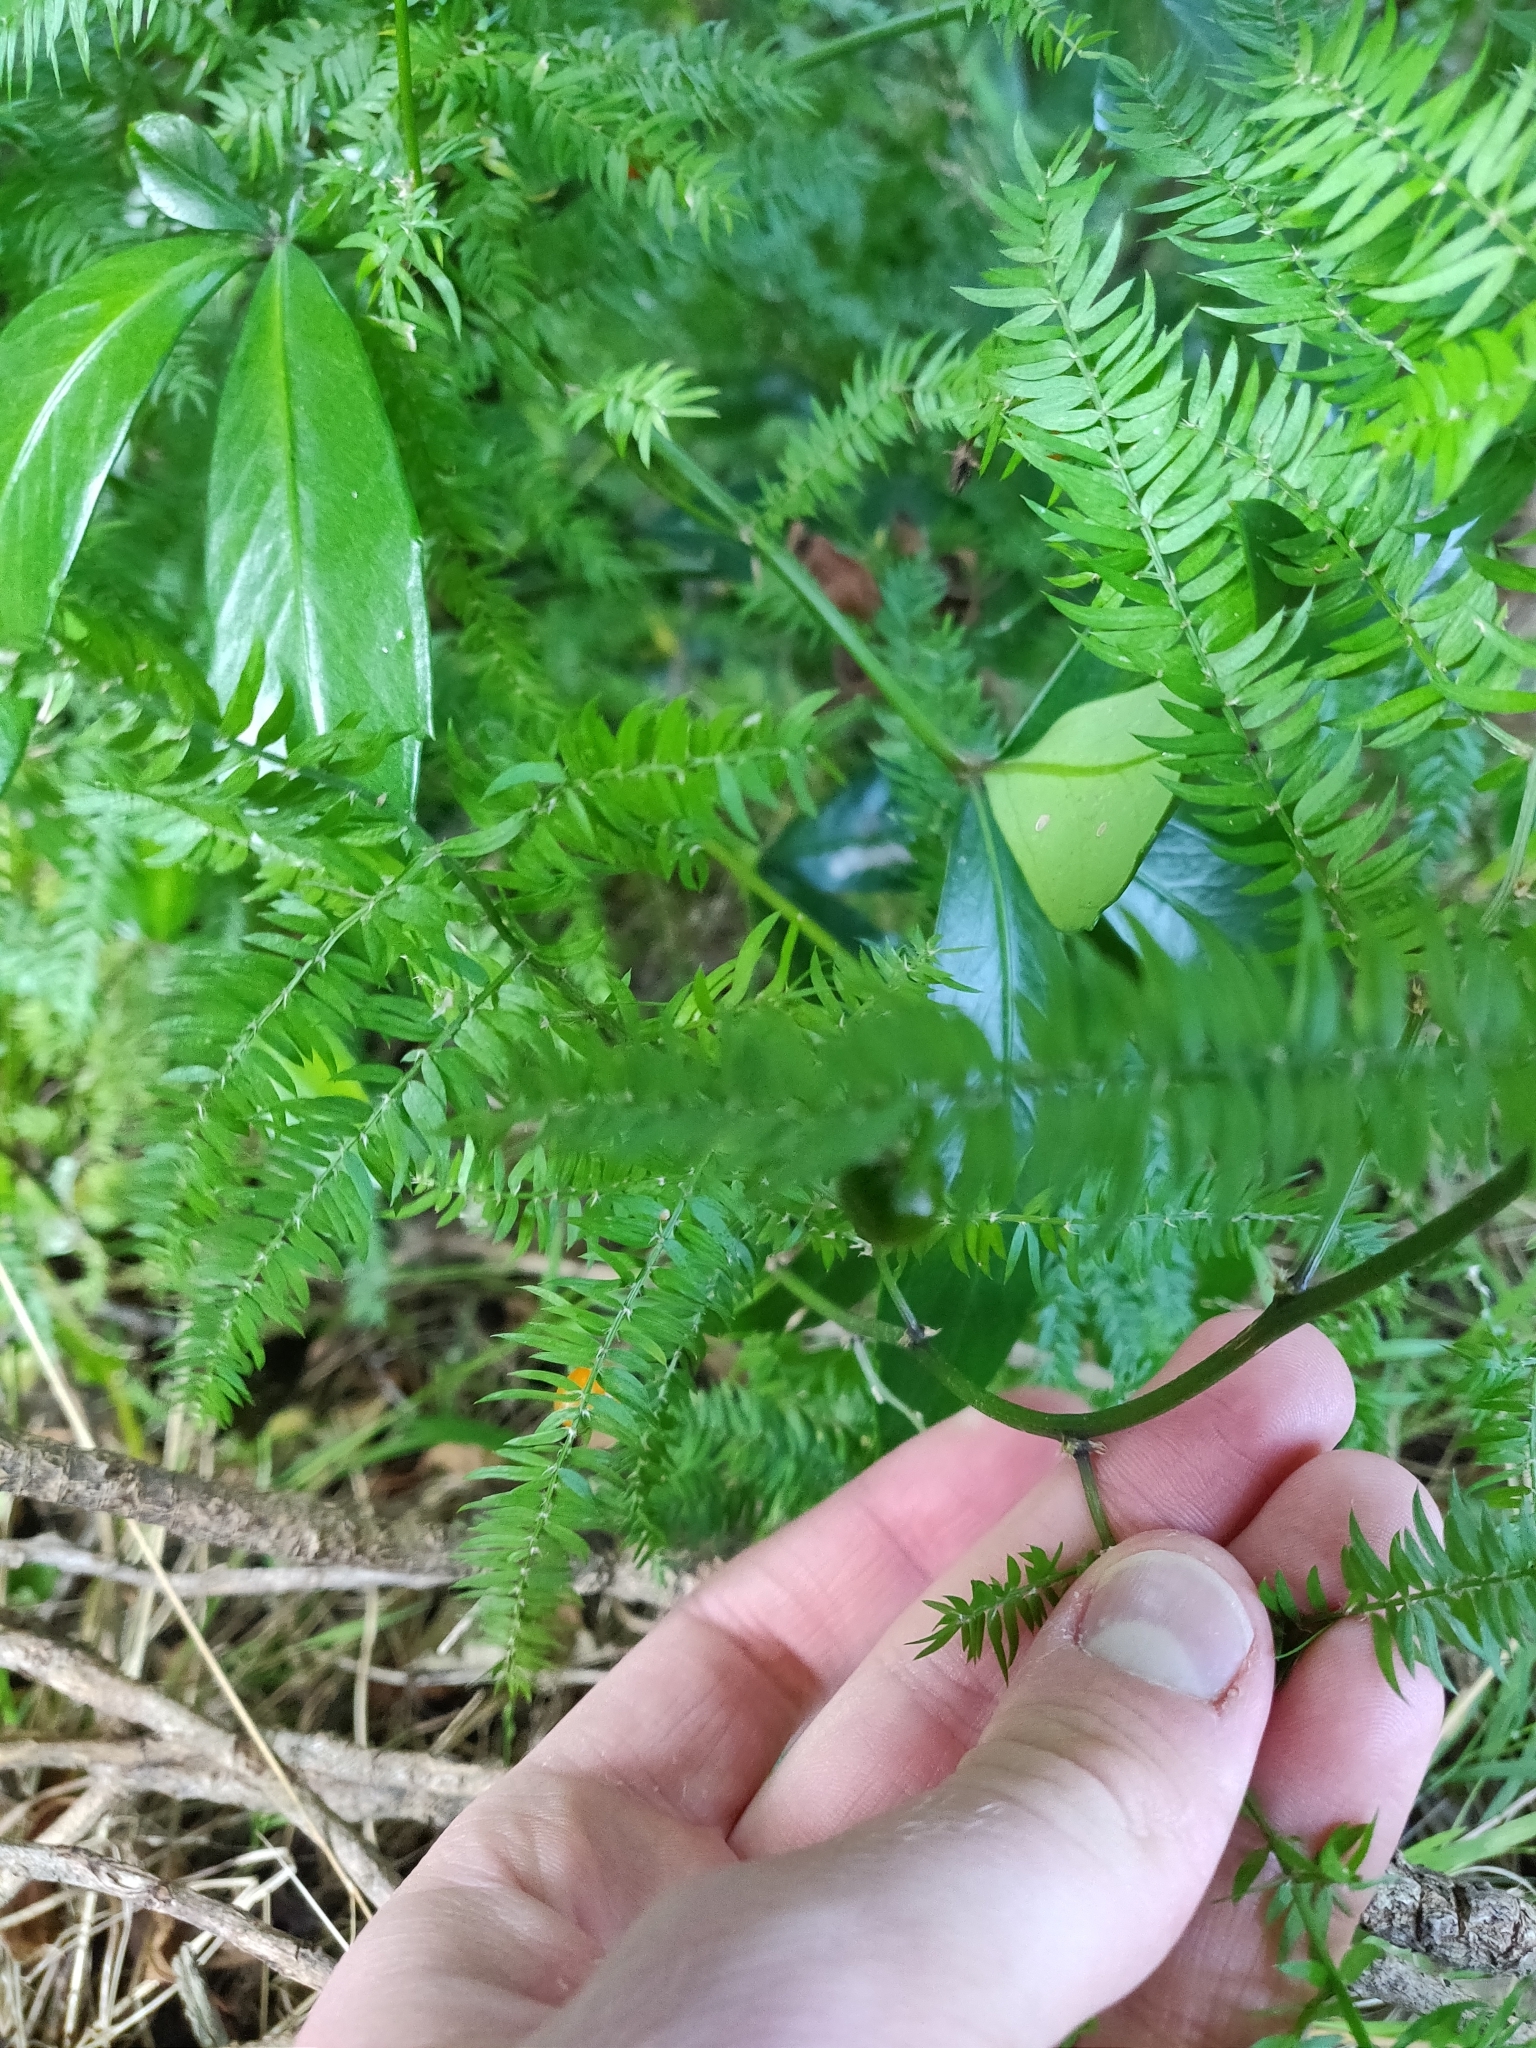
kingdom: Plantae
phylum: Tracheophyta
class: Liliopsida
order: Asparagales
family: Asparagaceae
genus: Asparagus
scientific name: Asparagus scandens
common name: Asparagus-fern
